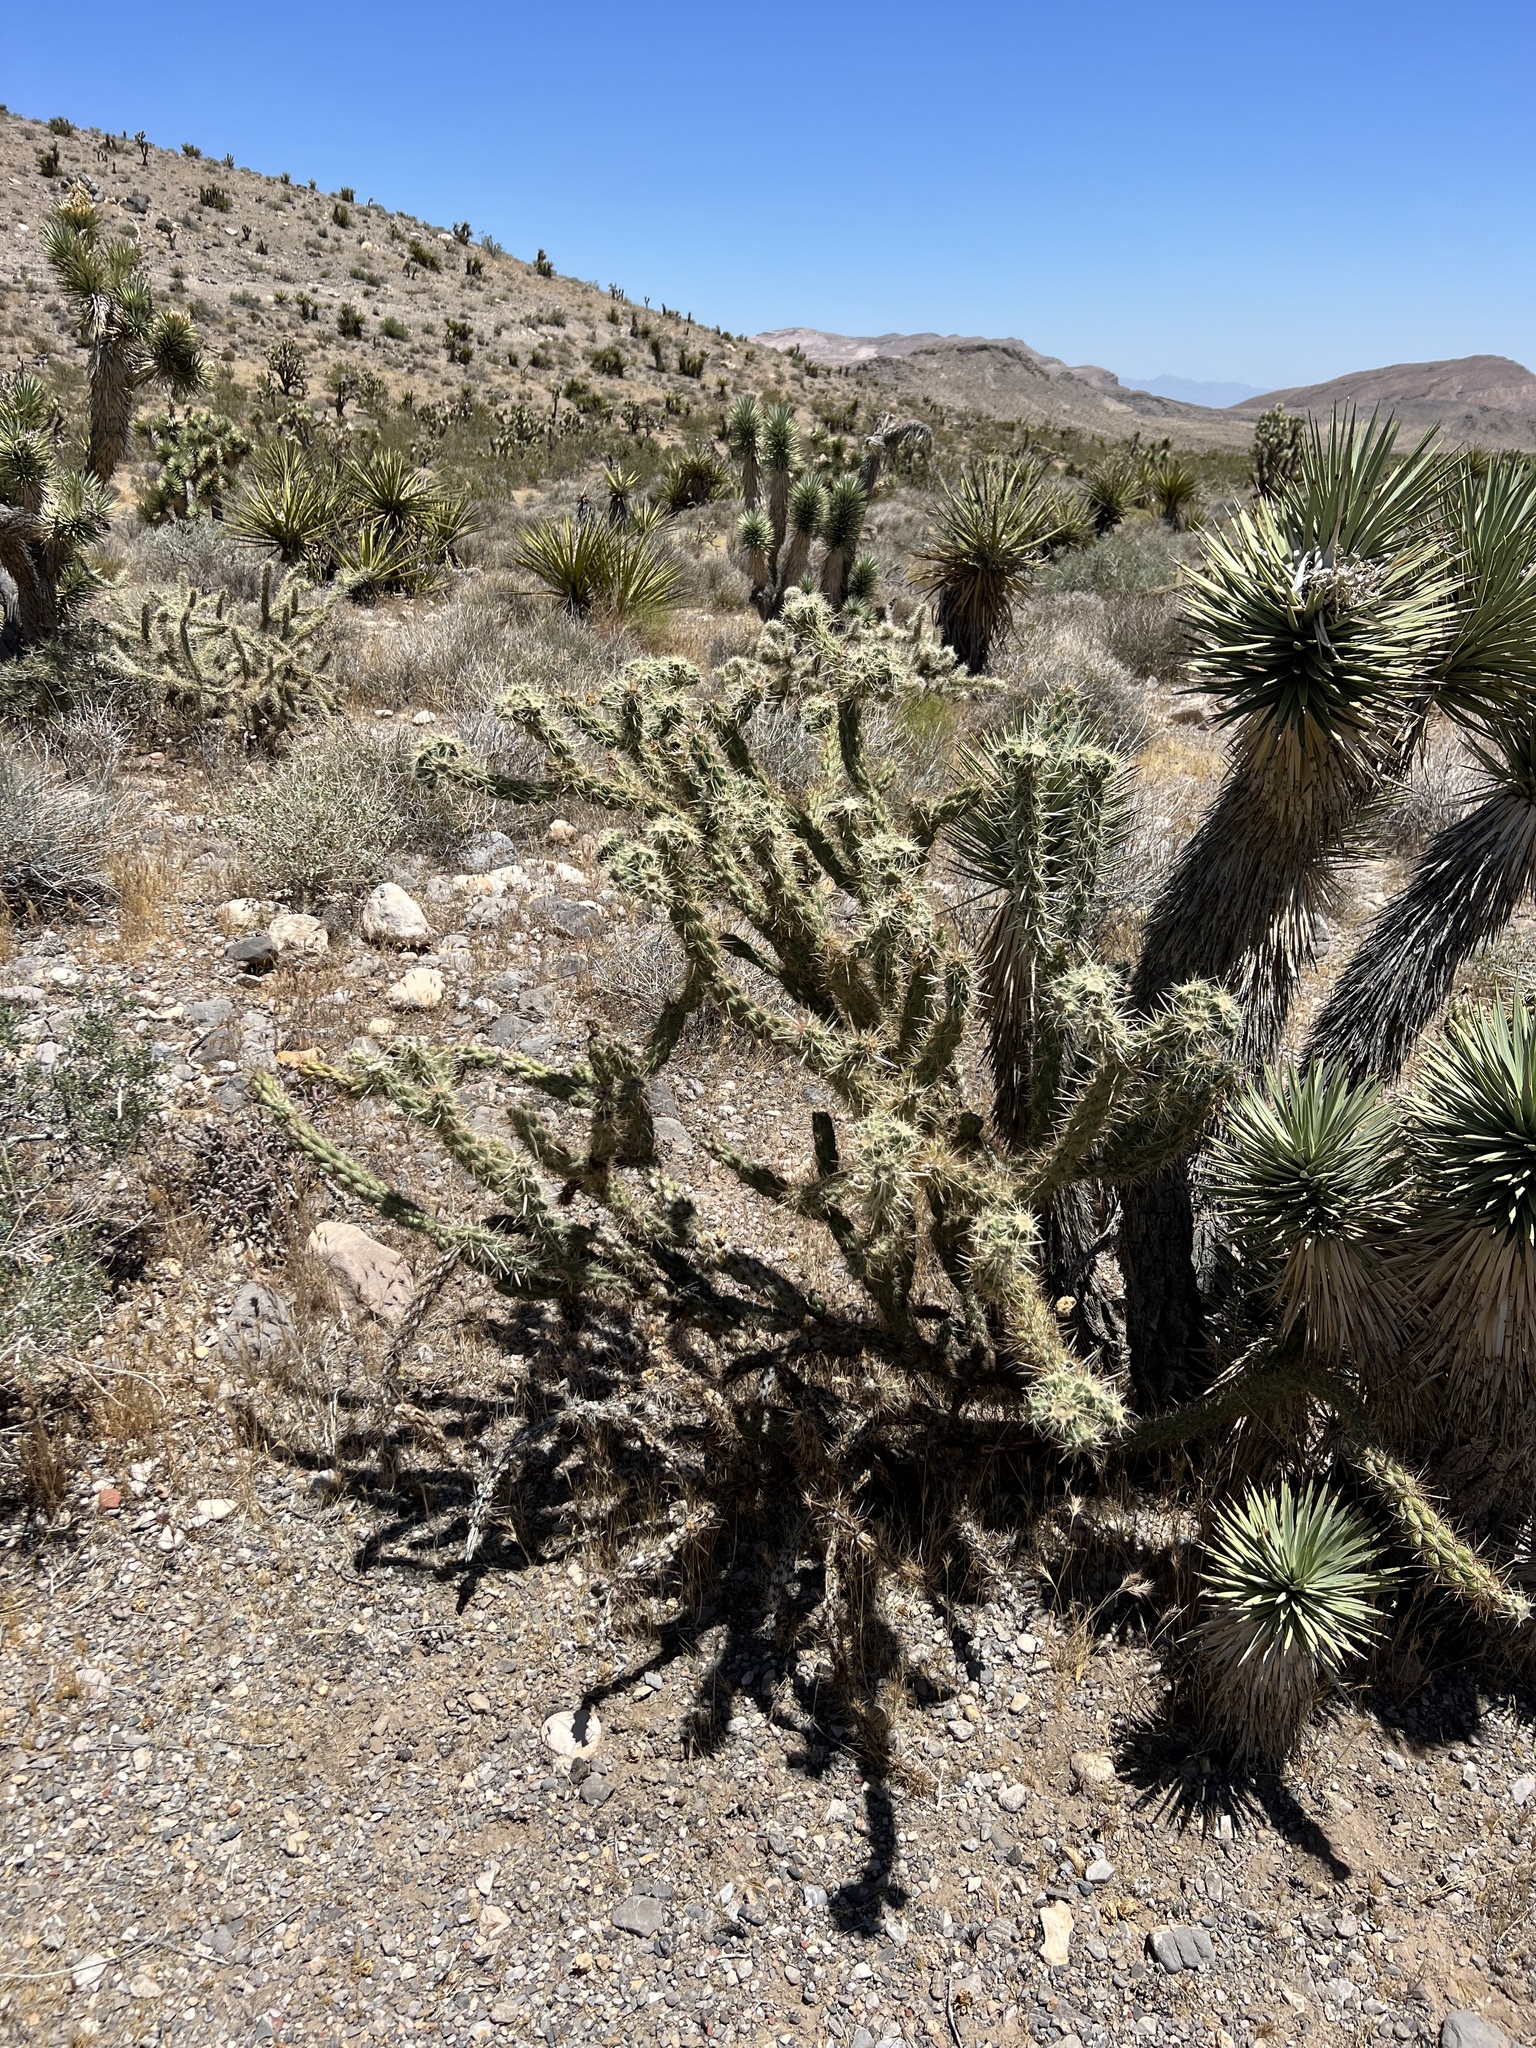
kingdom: Plantae
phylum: Tracheophyta
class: Magnoliopsida
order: Caryophyllales
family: Cactaceae
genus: Cylindropuntia
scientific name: Cylindropuntia acanthocarpa
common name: Buckhorn cholla
